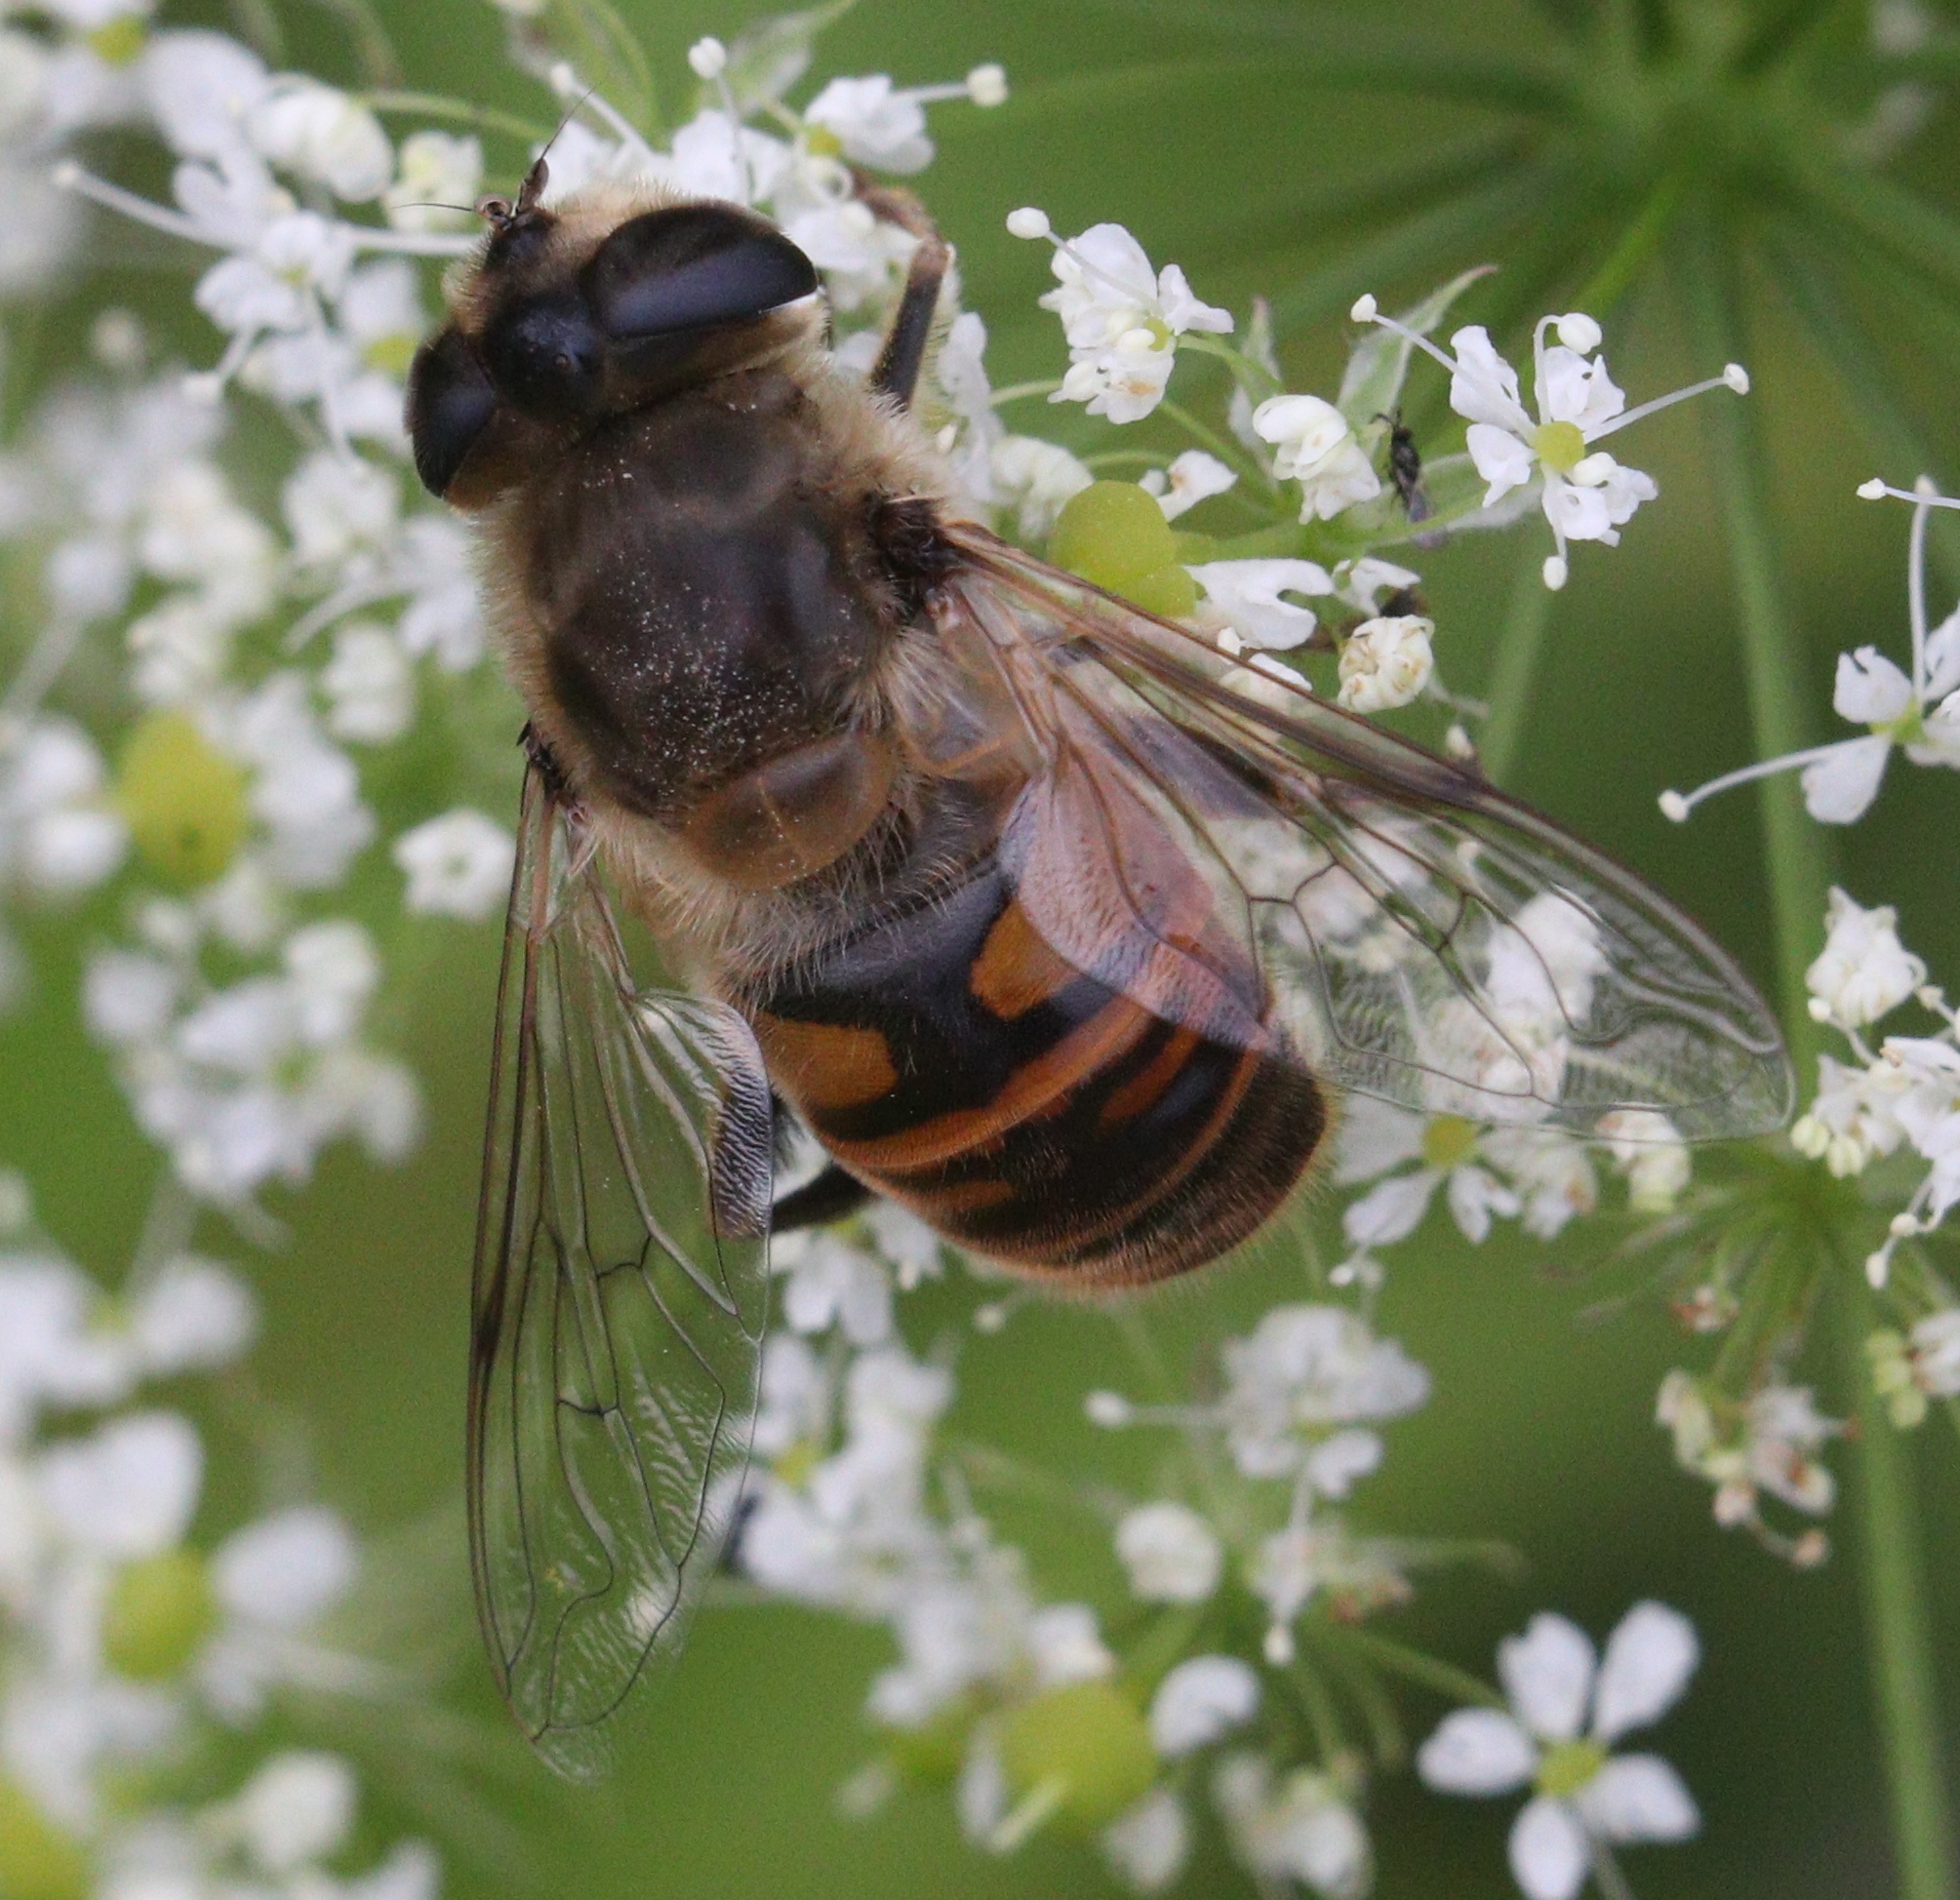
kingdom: Animalia
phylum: Arthropoda
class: Insecta
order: Diptera
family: Syrphidae
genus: Eristalis
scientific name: Eristalis tenax
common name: Drone fly
